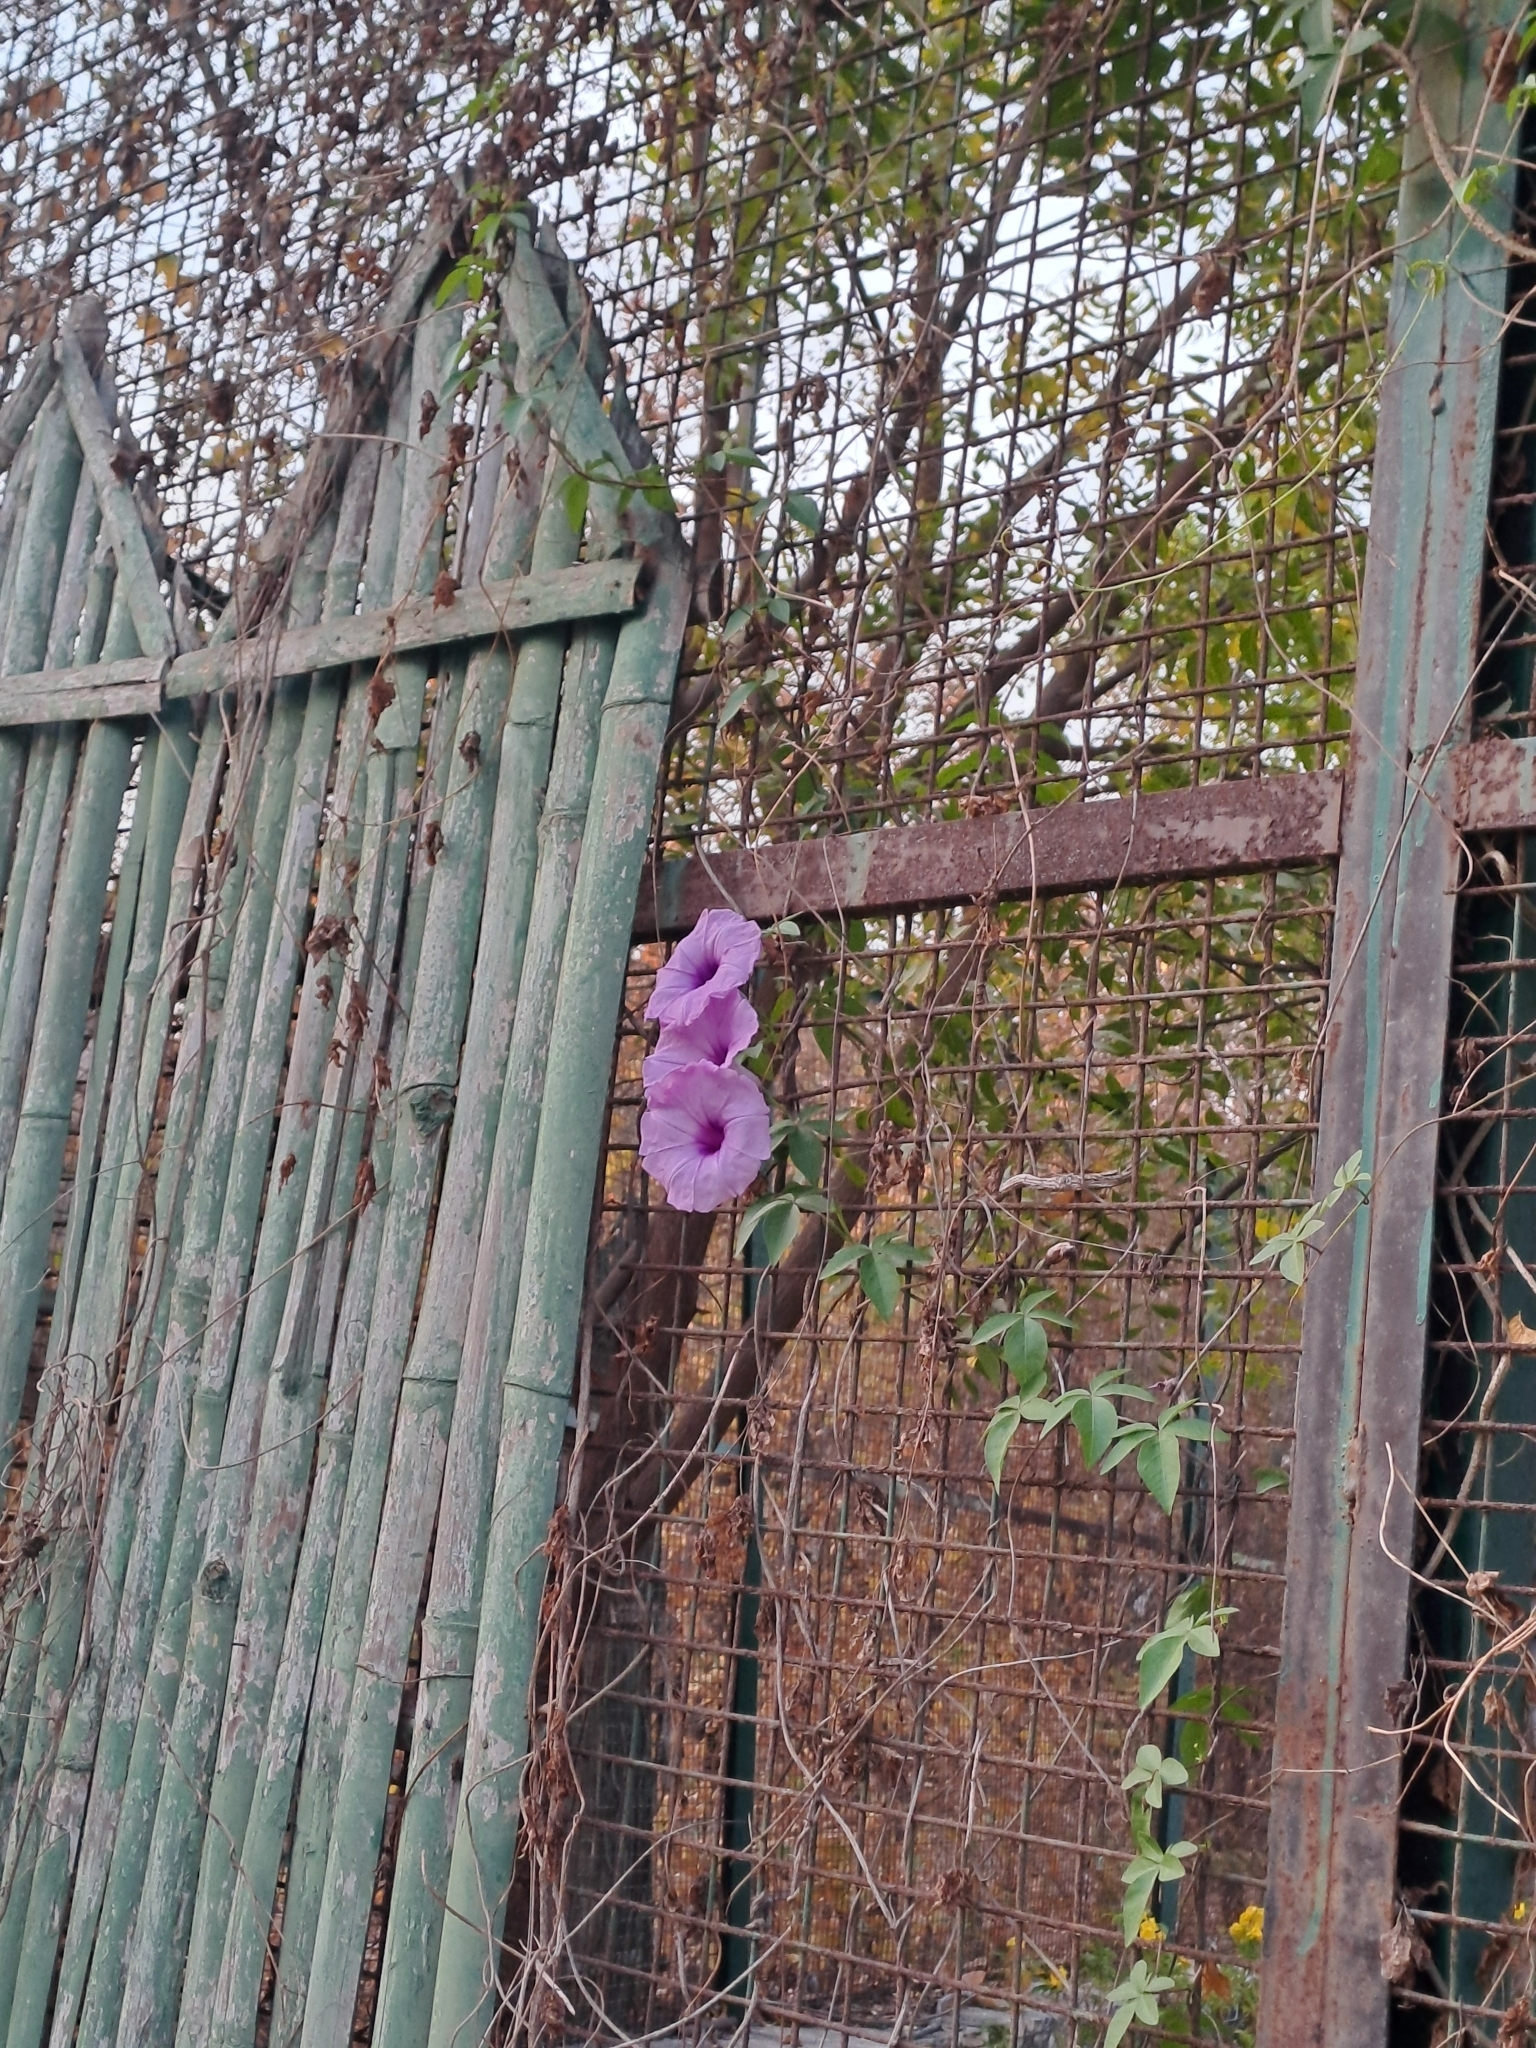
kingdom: Plantae
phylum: Tracheophyta
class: Magnoliopsida
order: Solanales
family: Convolvulaceae
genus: Ipomoea
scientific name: Ipomoea cairica
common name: Mile a minute vine
